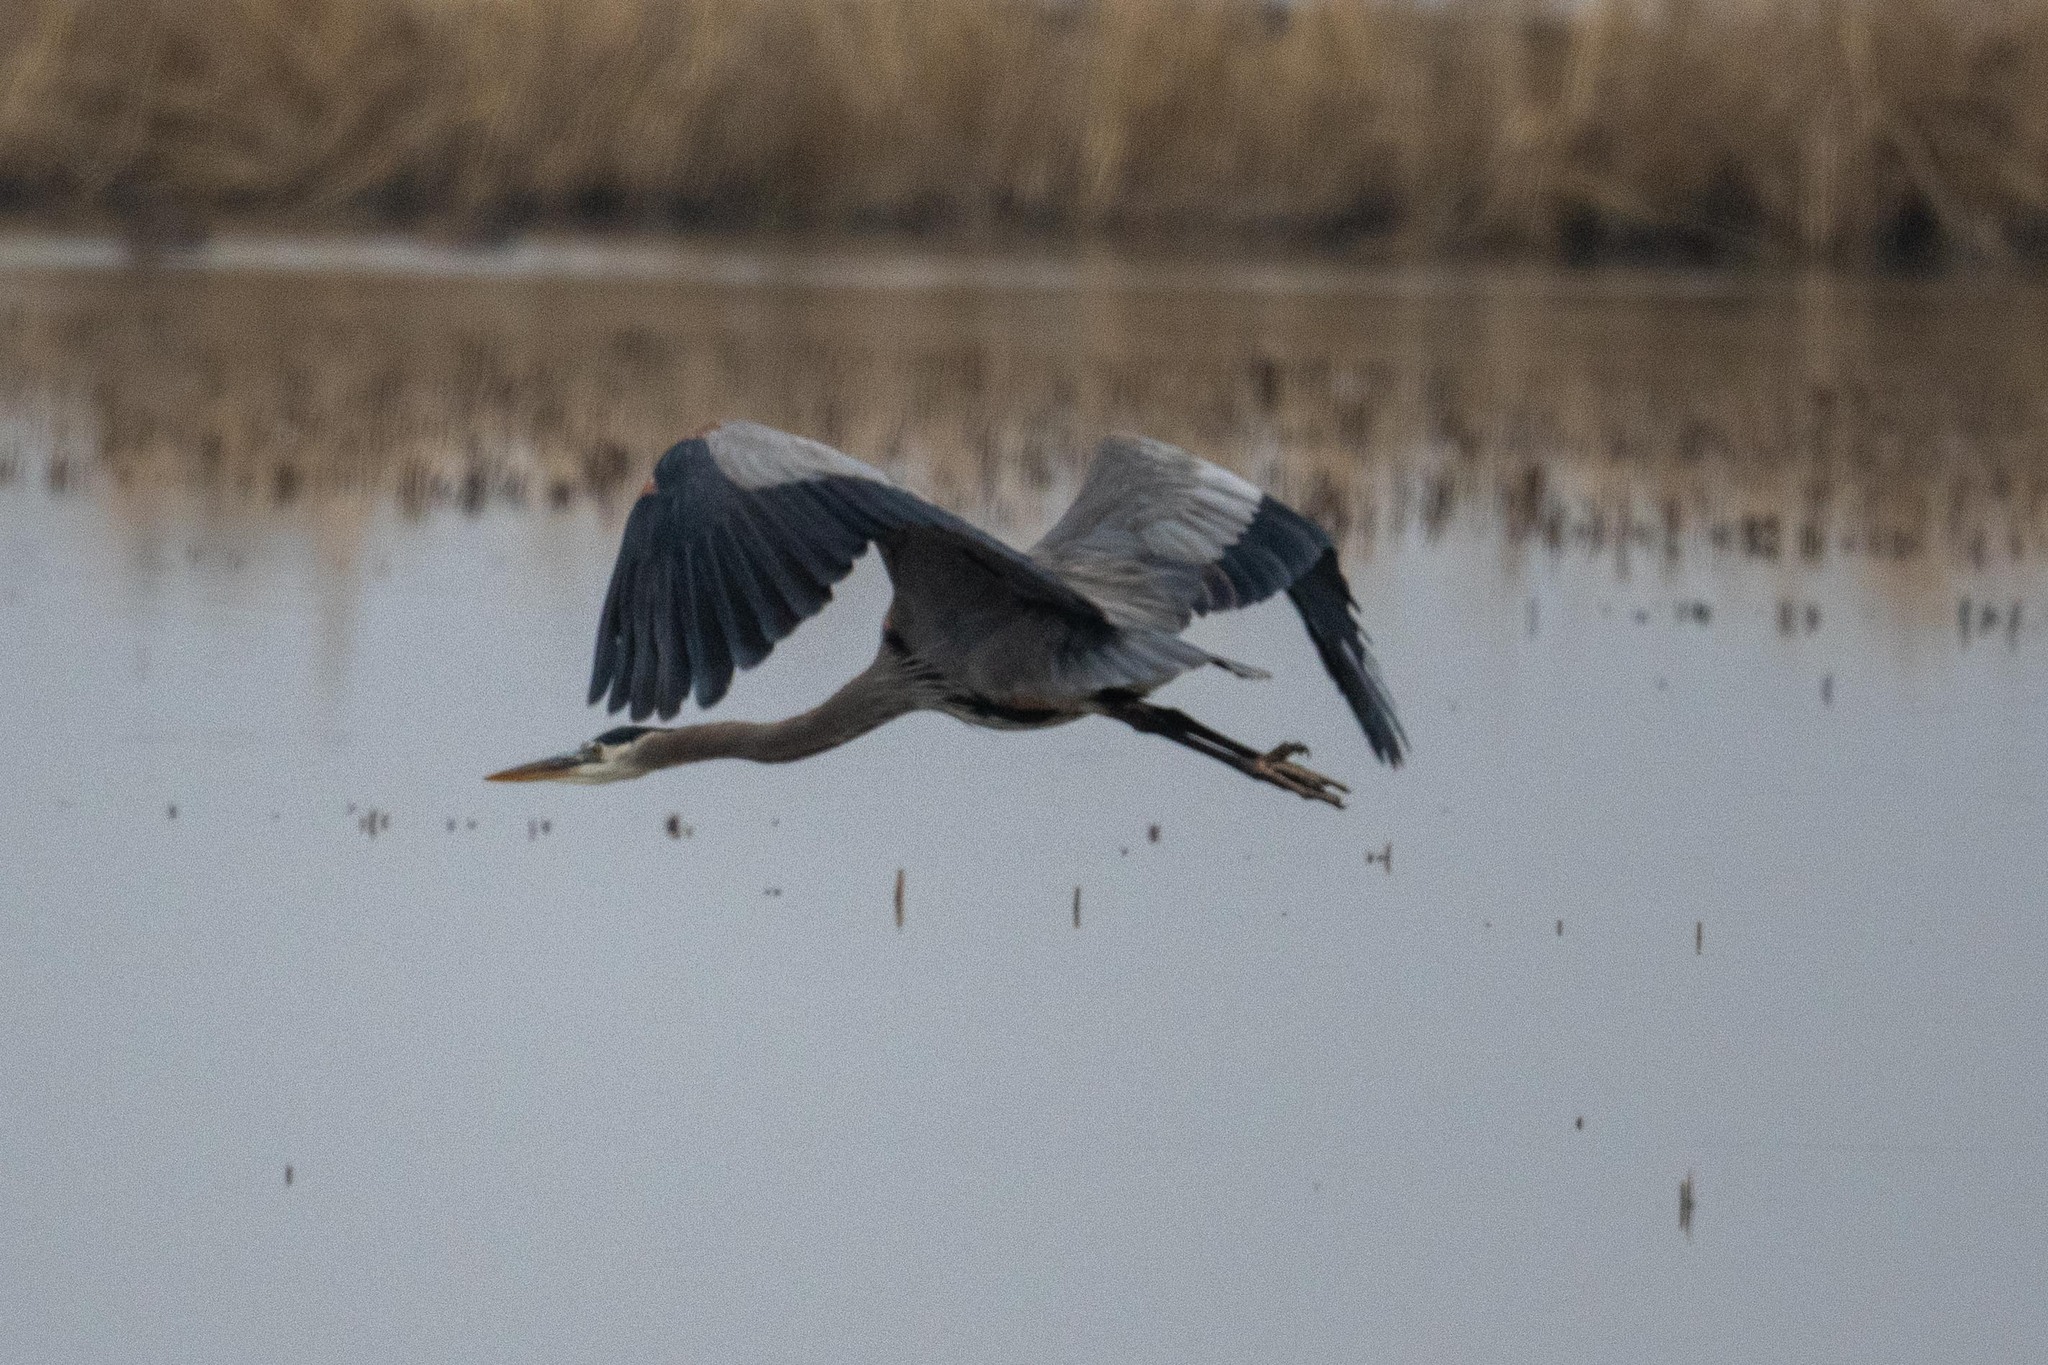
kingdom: Animalia
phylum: Chordata
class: Aves
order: Pelecaniformes
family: Ardeidae
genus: Ardea
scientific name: Ardea herodias
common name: Great blue heron
